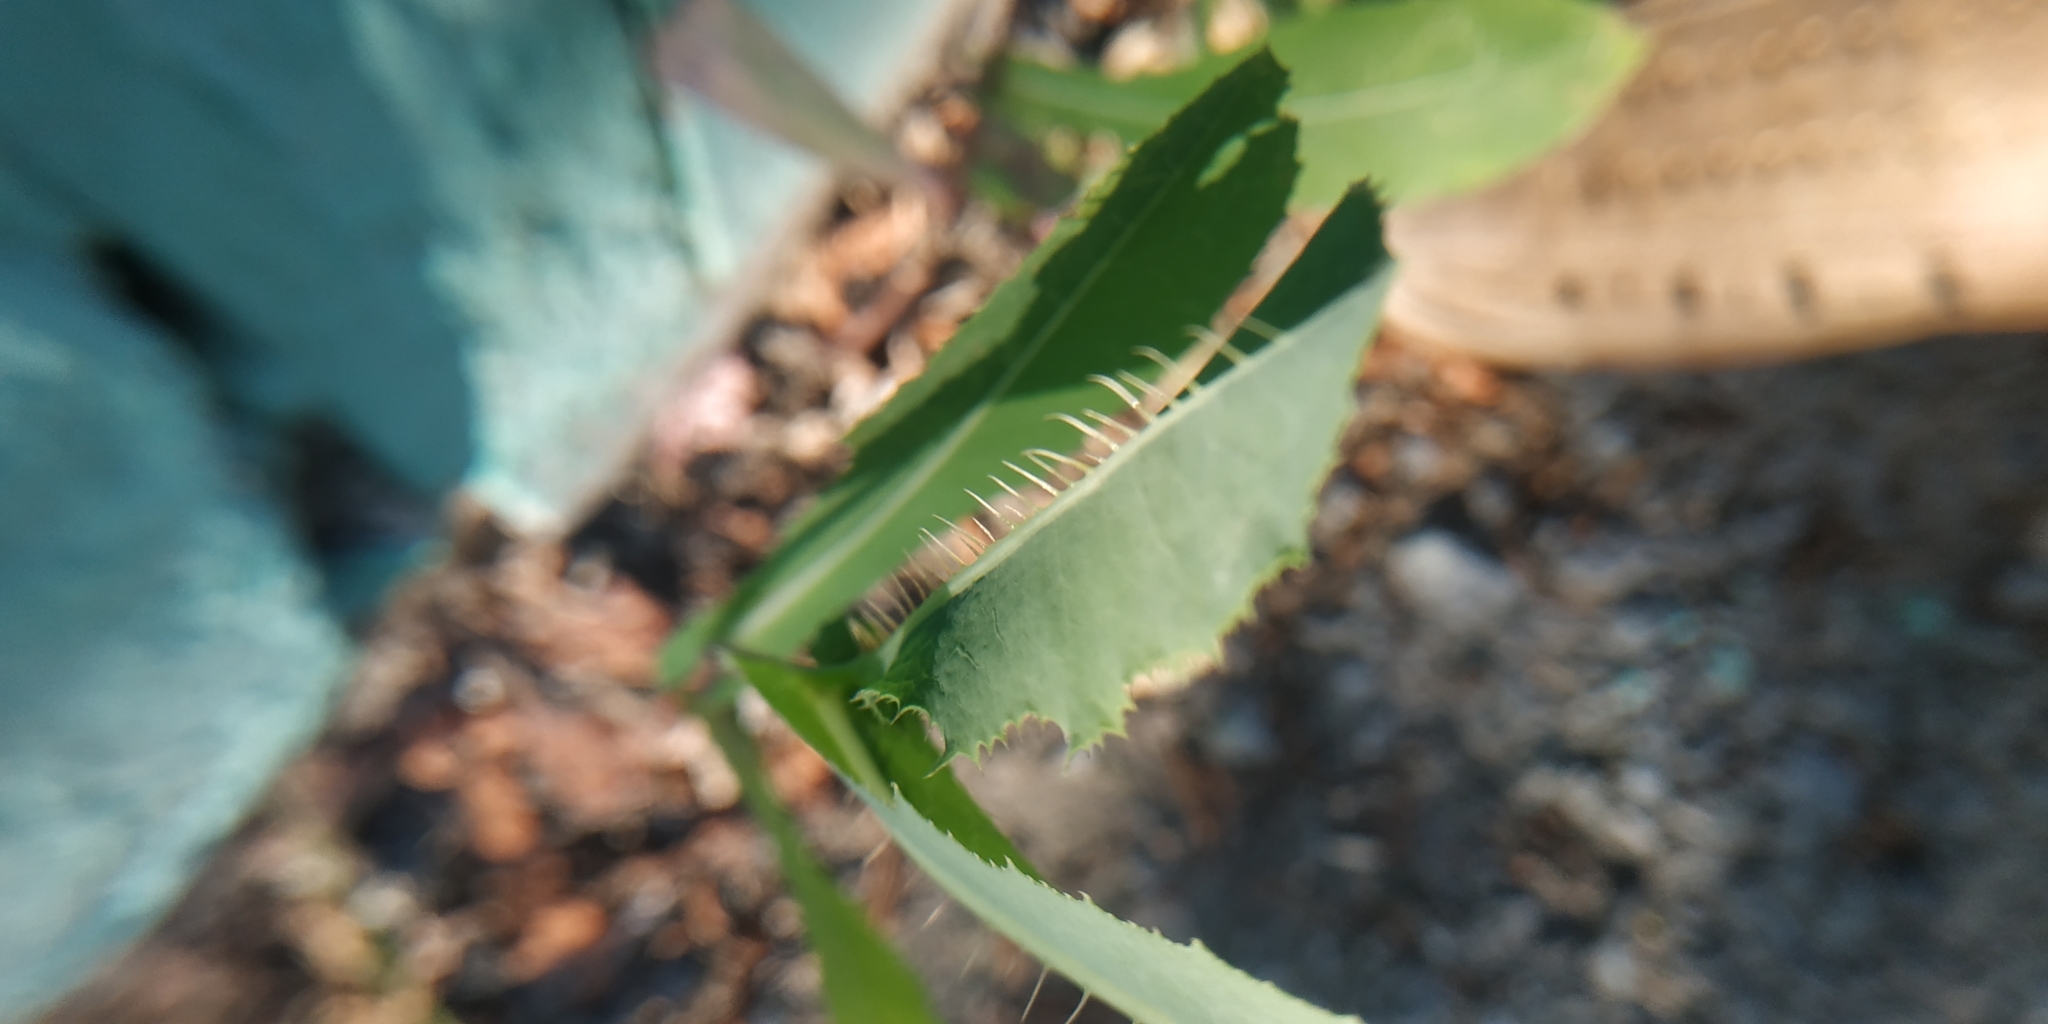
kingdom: Plantae
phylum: Tracheophyta
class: Magnoliopsida
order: Asterales
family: Asteraceae
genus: Lactuca
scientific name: Lactuca serriola
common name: Prickly lettuce
